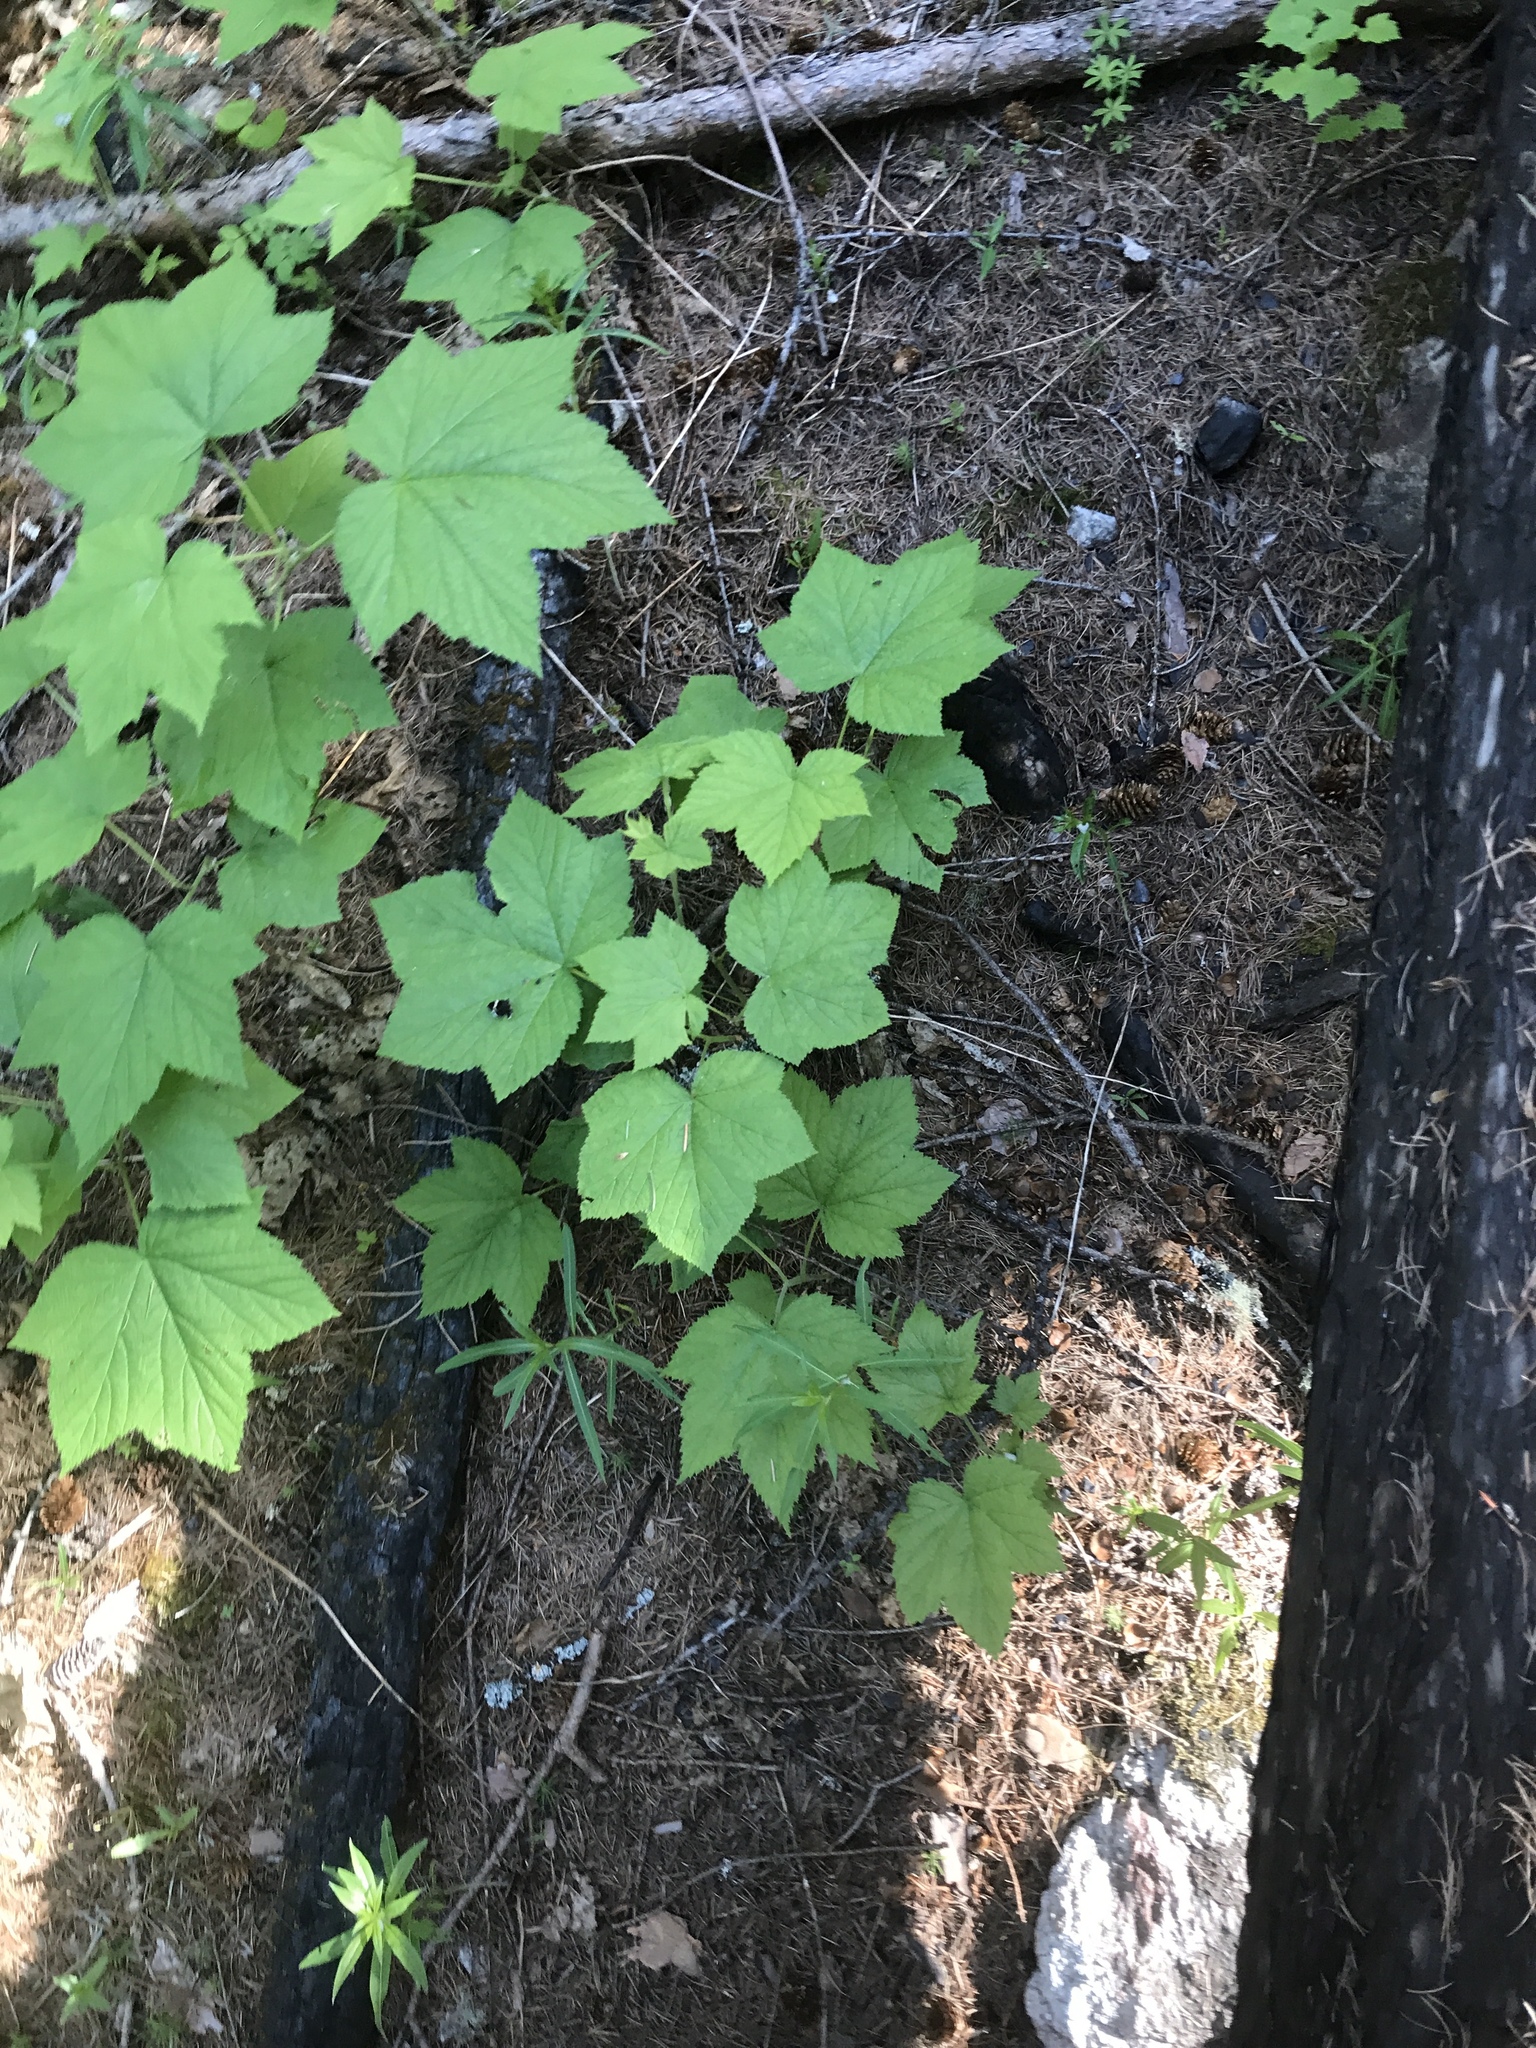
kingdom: Animalia
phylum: Arthropoda
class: Insecta
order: Lepidoptera
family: Geometridae
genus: Trichodezia
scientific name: Trichodezia albovittata
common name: White striped black
